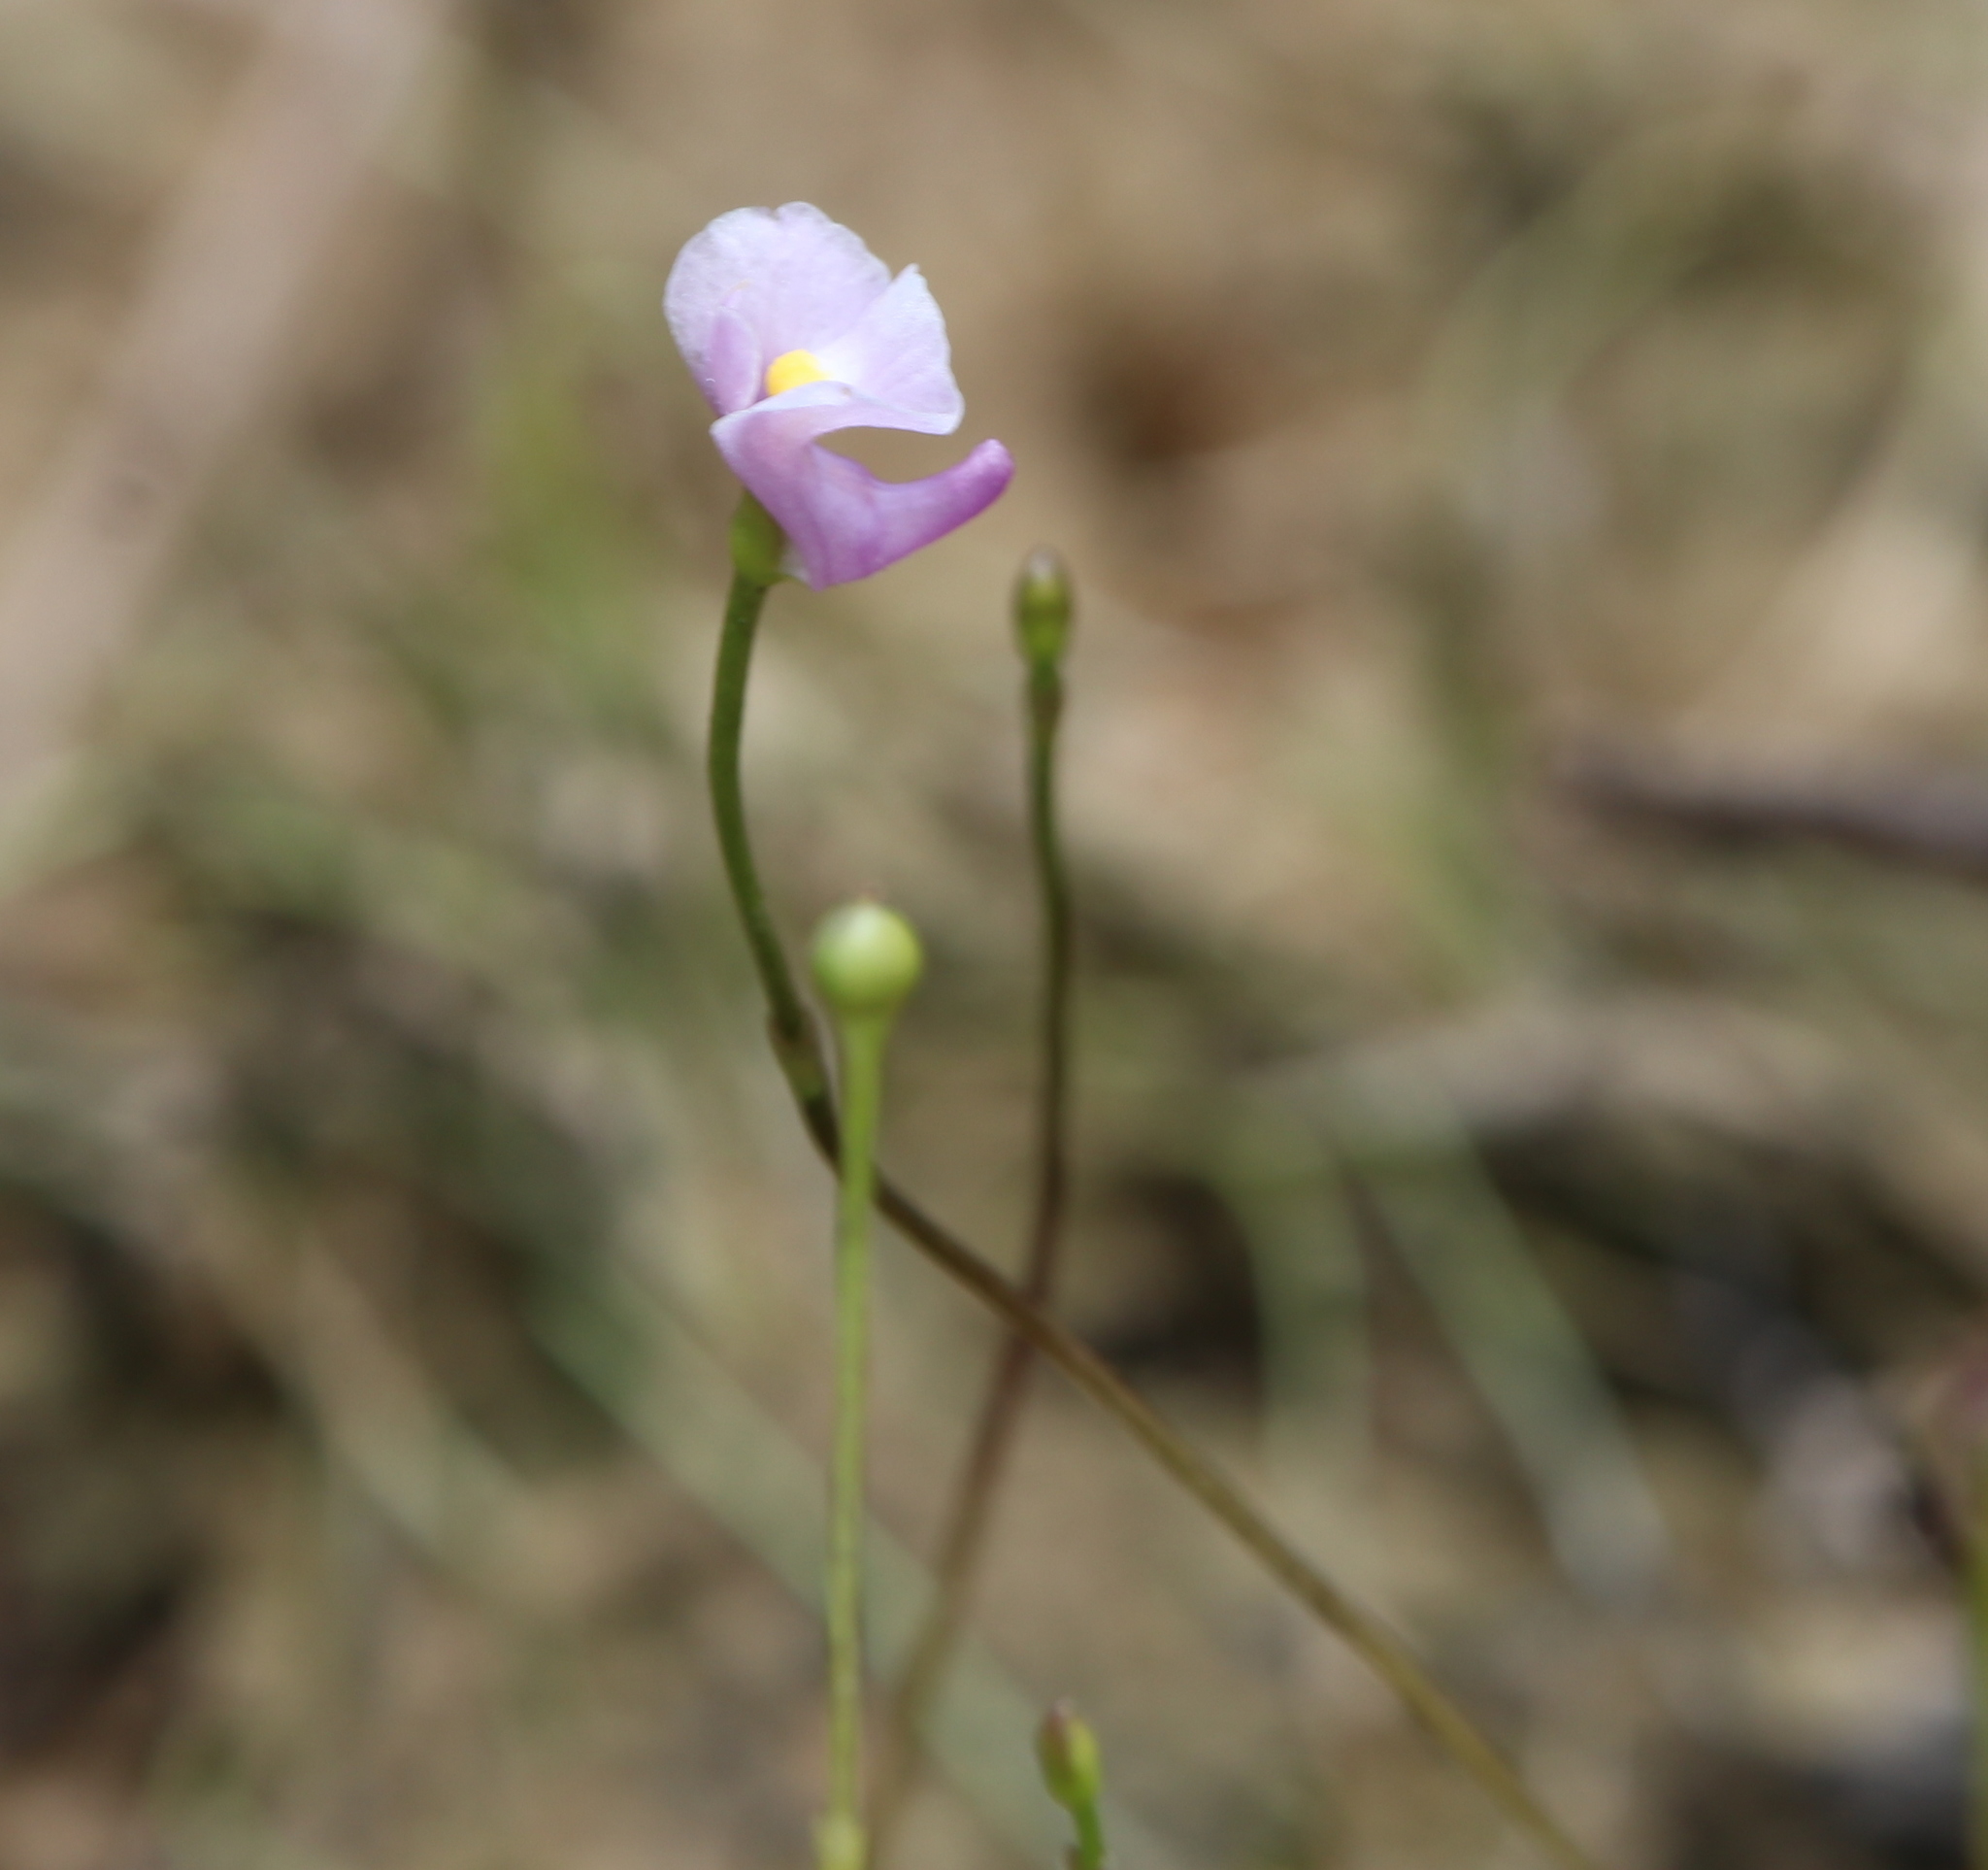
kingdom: Plantae
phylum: Tracheophyta
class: Magnoliopsida
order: Lamiales
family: Lentibulariaceae
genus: Utricularia
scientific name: Utricularia resupinata
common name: Northeastern bladderwort
